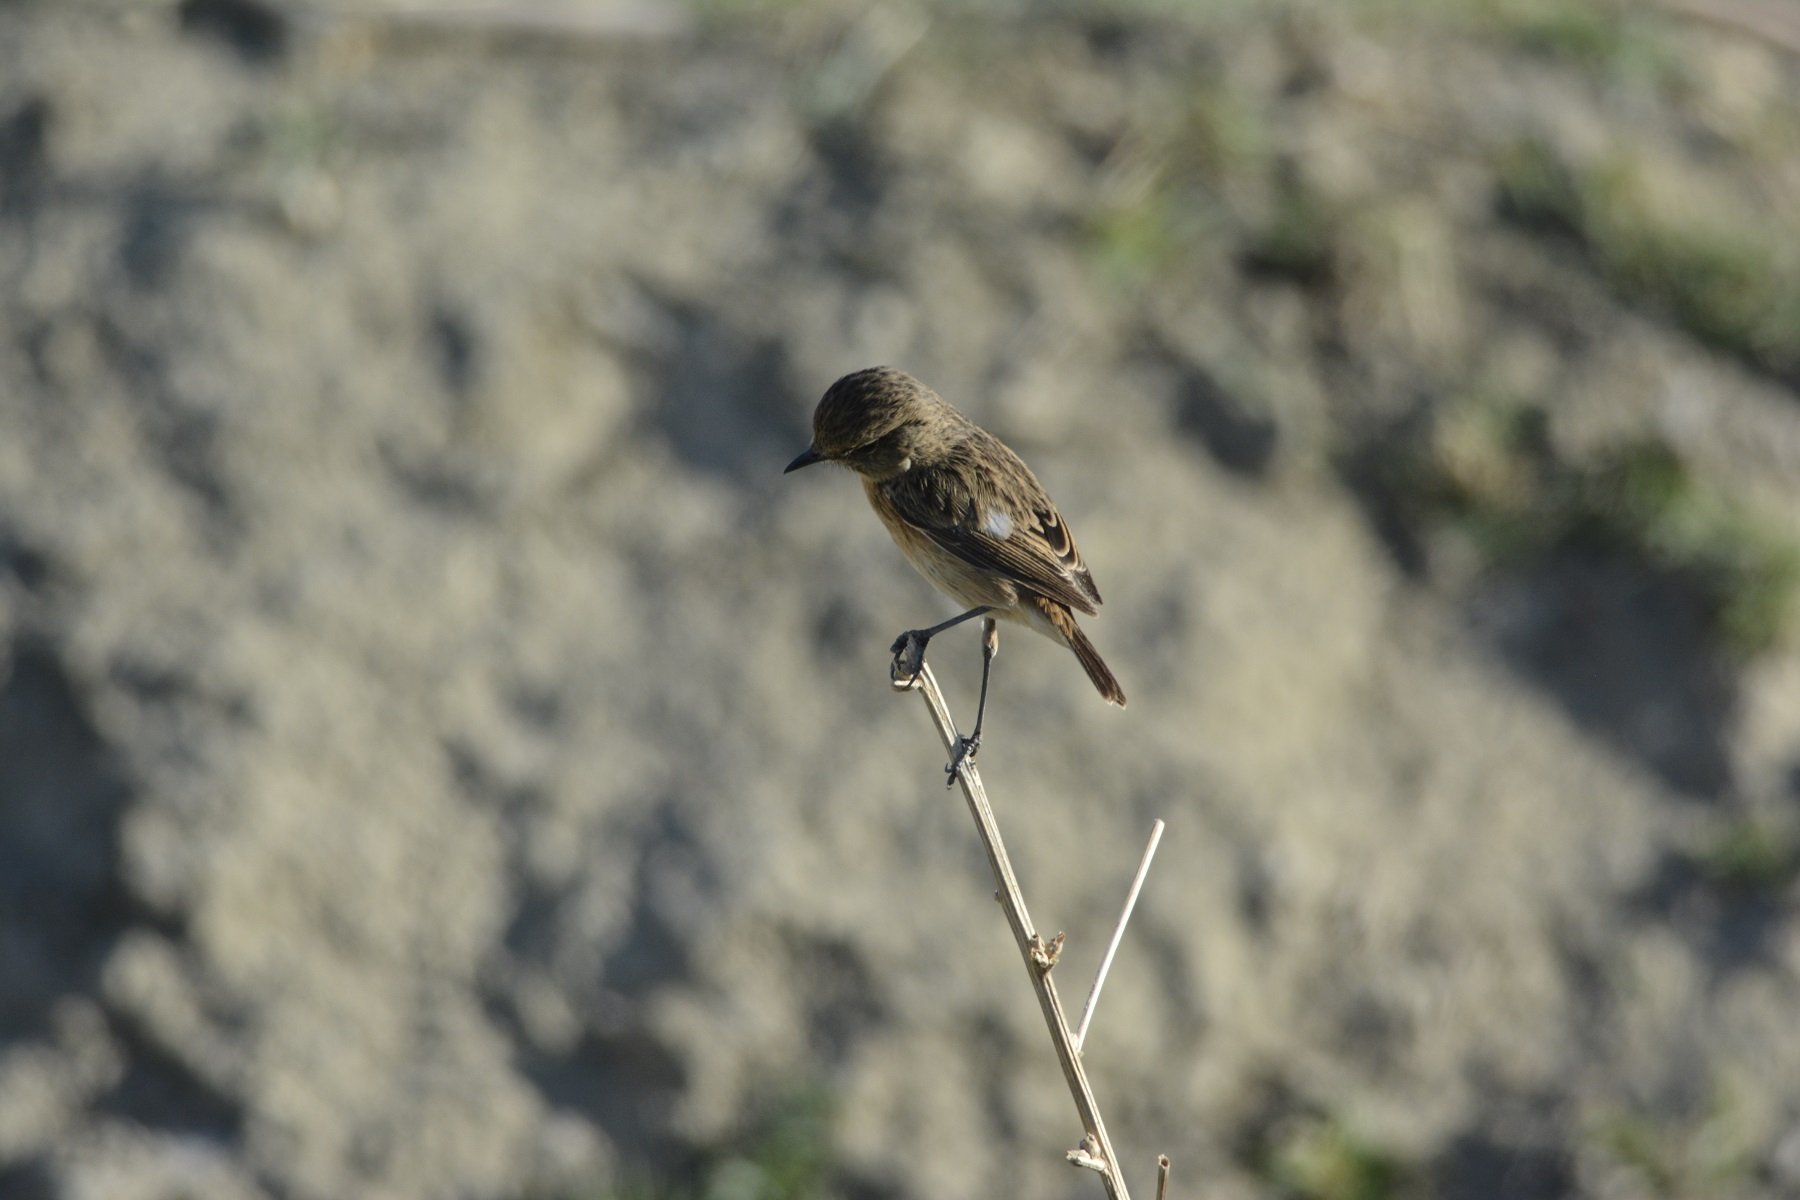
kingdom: Animalia
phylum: Chordata
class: Aves
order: Passeriformes
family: Muscicapidae
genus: Saxicola
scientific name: Saxicola rubicola
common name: European stonechat
